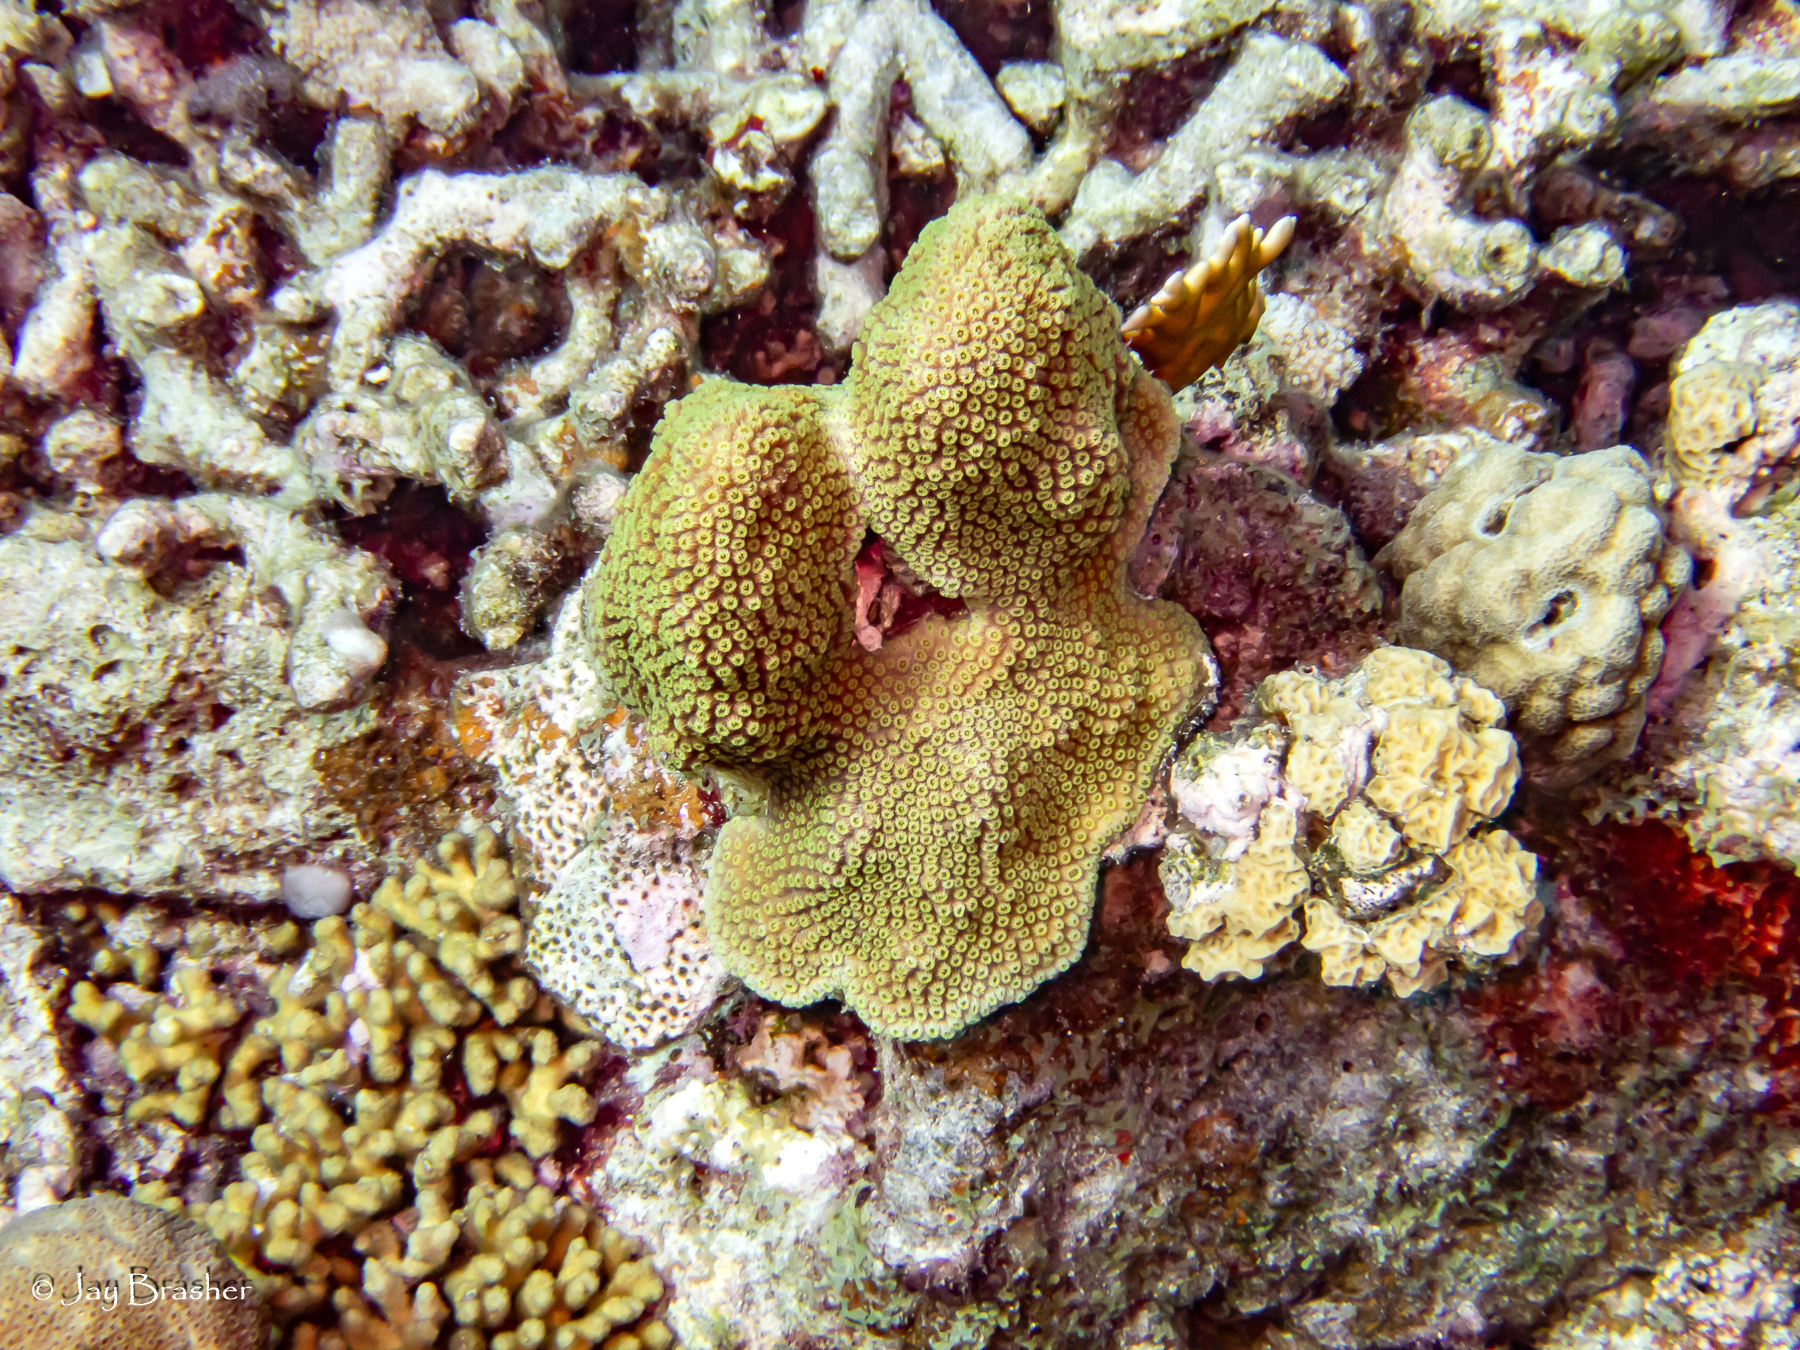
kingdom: Animalia
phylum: Cnidaria
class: Anthozoa
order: Scleractinia
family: Poritidae
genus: Porites
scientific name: Porites astreoides
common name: Mustard hill coral
